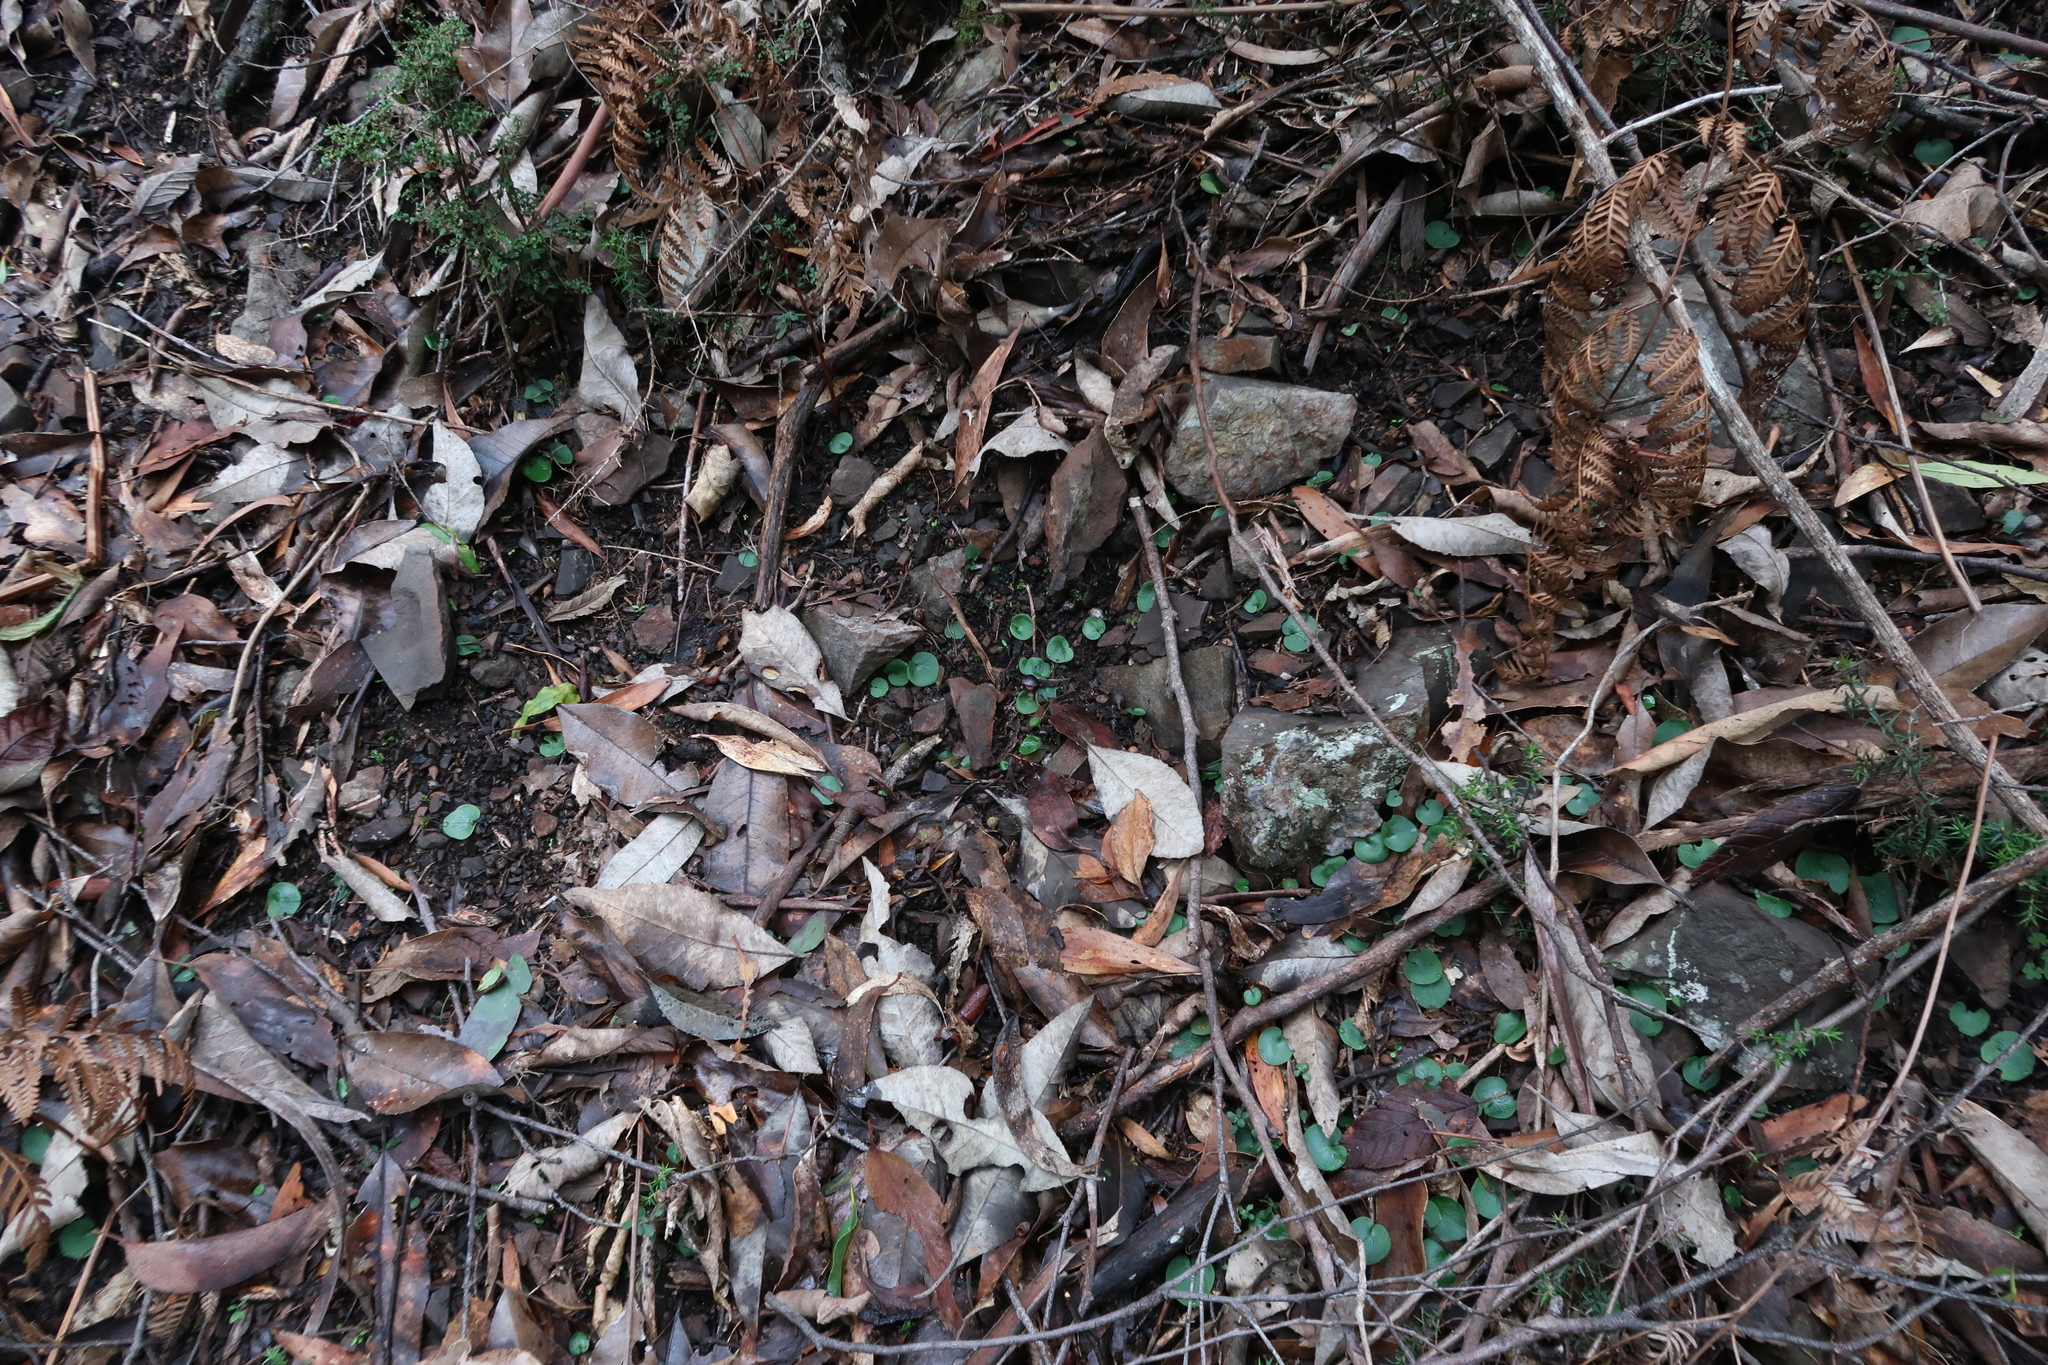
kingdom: Plantae
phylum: Tracheophyta
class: Liliopsida
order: Asparagales
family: Orchidaceae
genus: Corybas
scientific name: Corybas diemenicus
